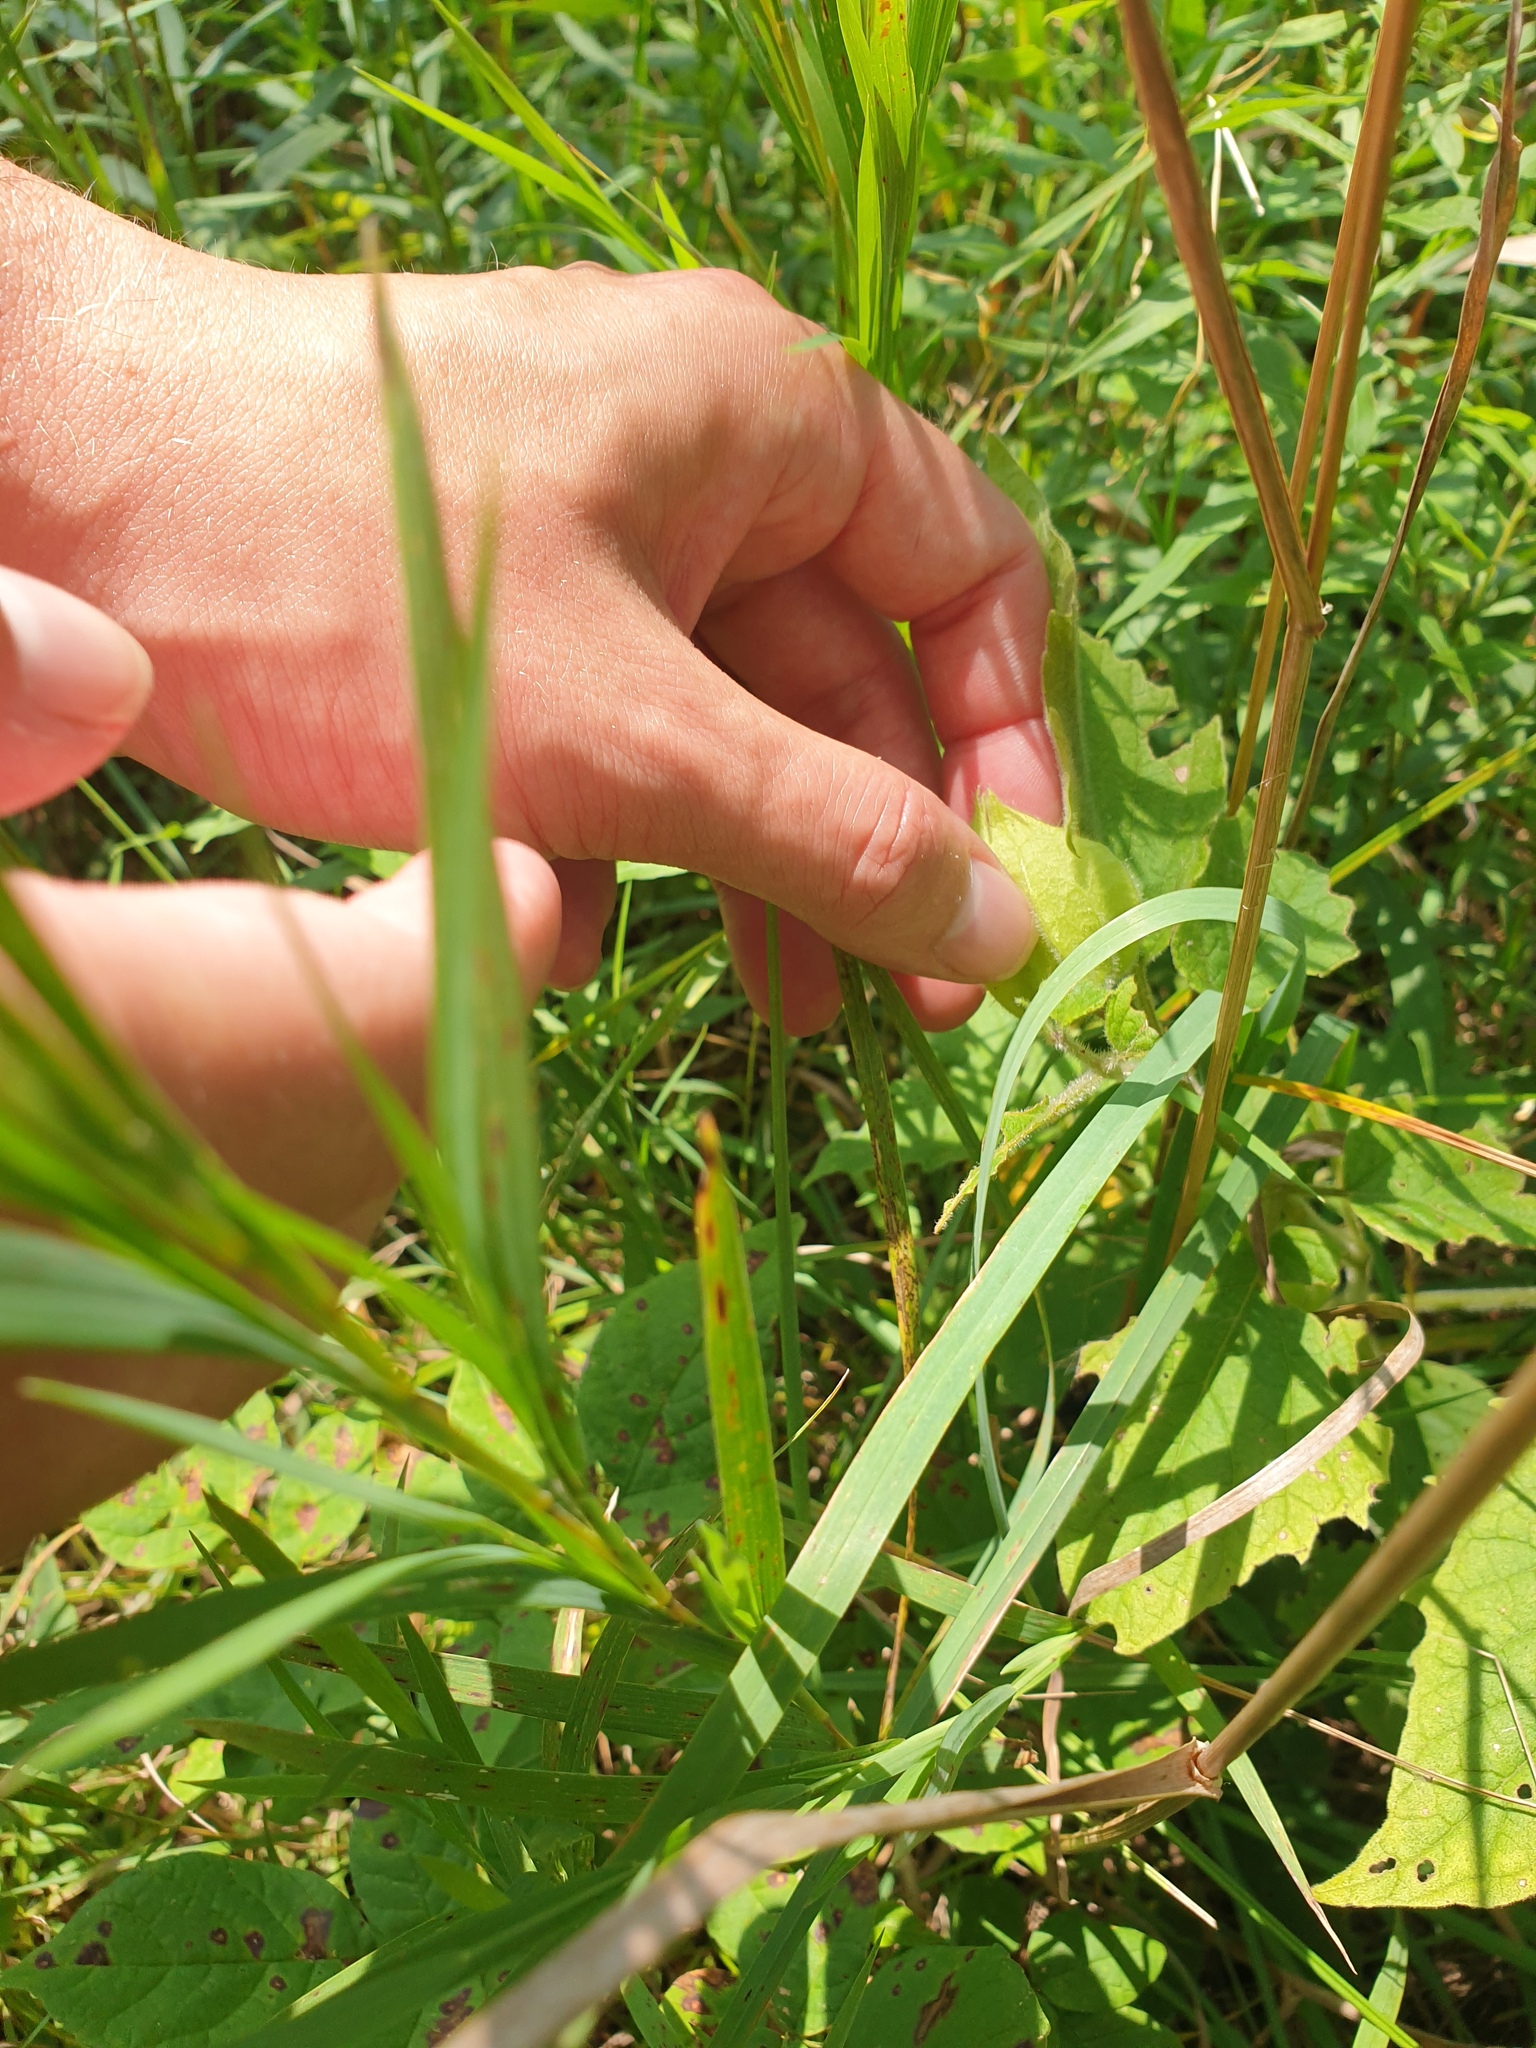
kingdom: Plantae
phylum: Tracheophyta
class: Magnoliopsida
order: Solanales
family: Solanaceae
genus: Physalis
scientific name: Physalis heterophylla
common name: Clammy ground-cherry
